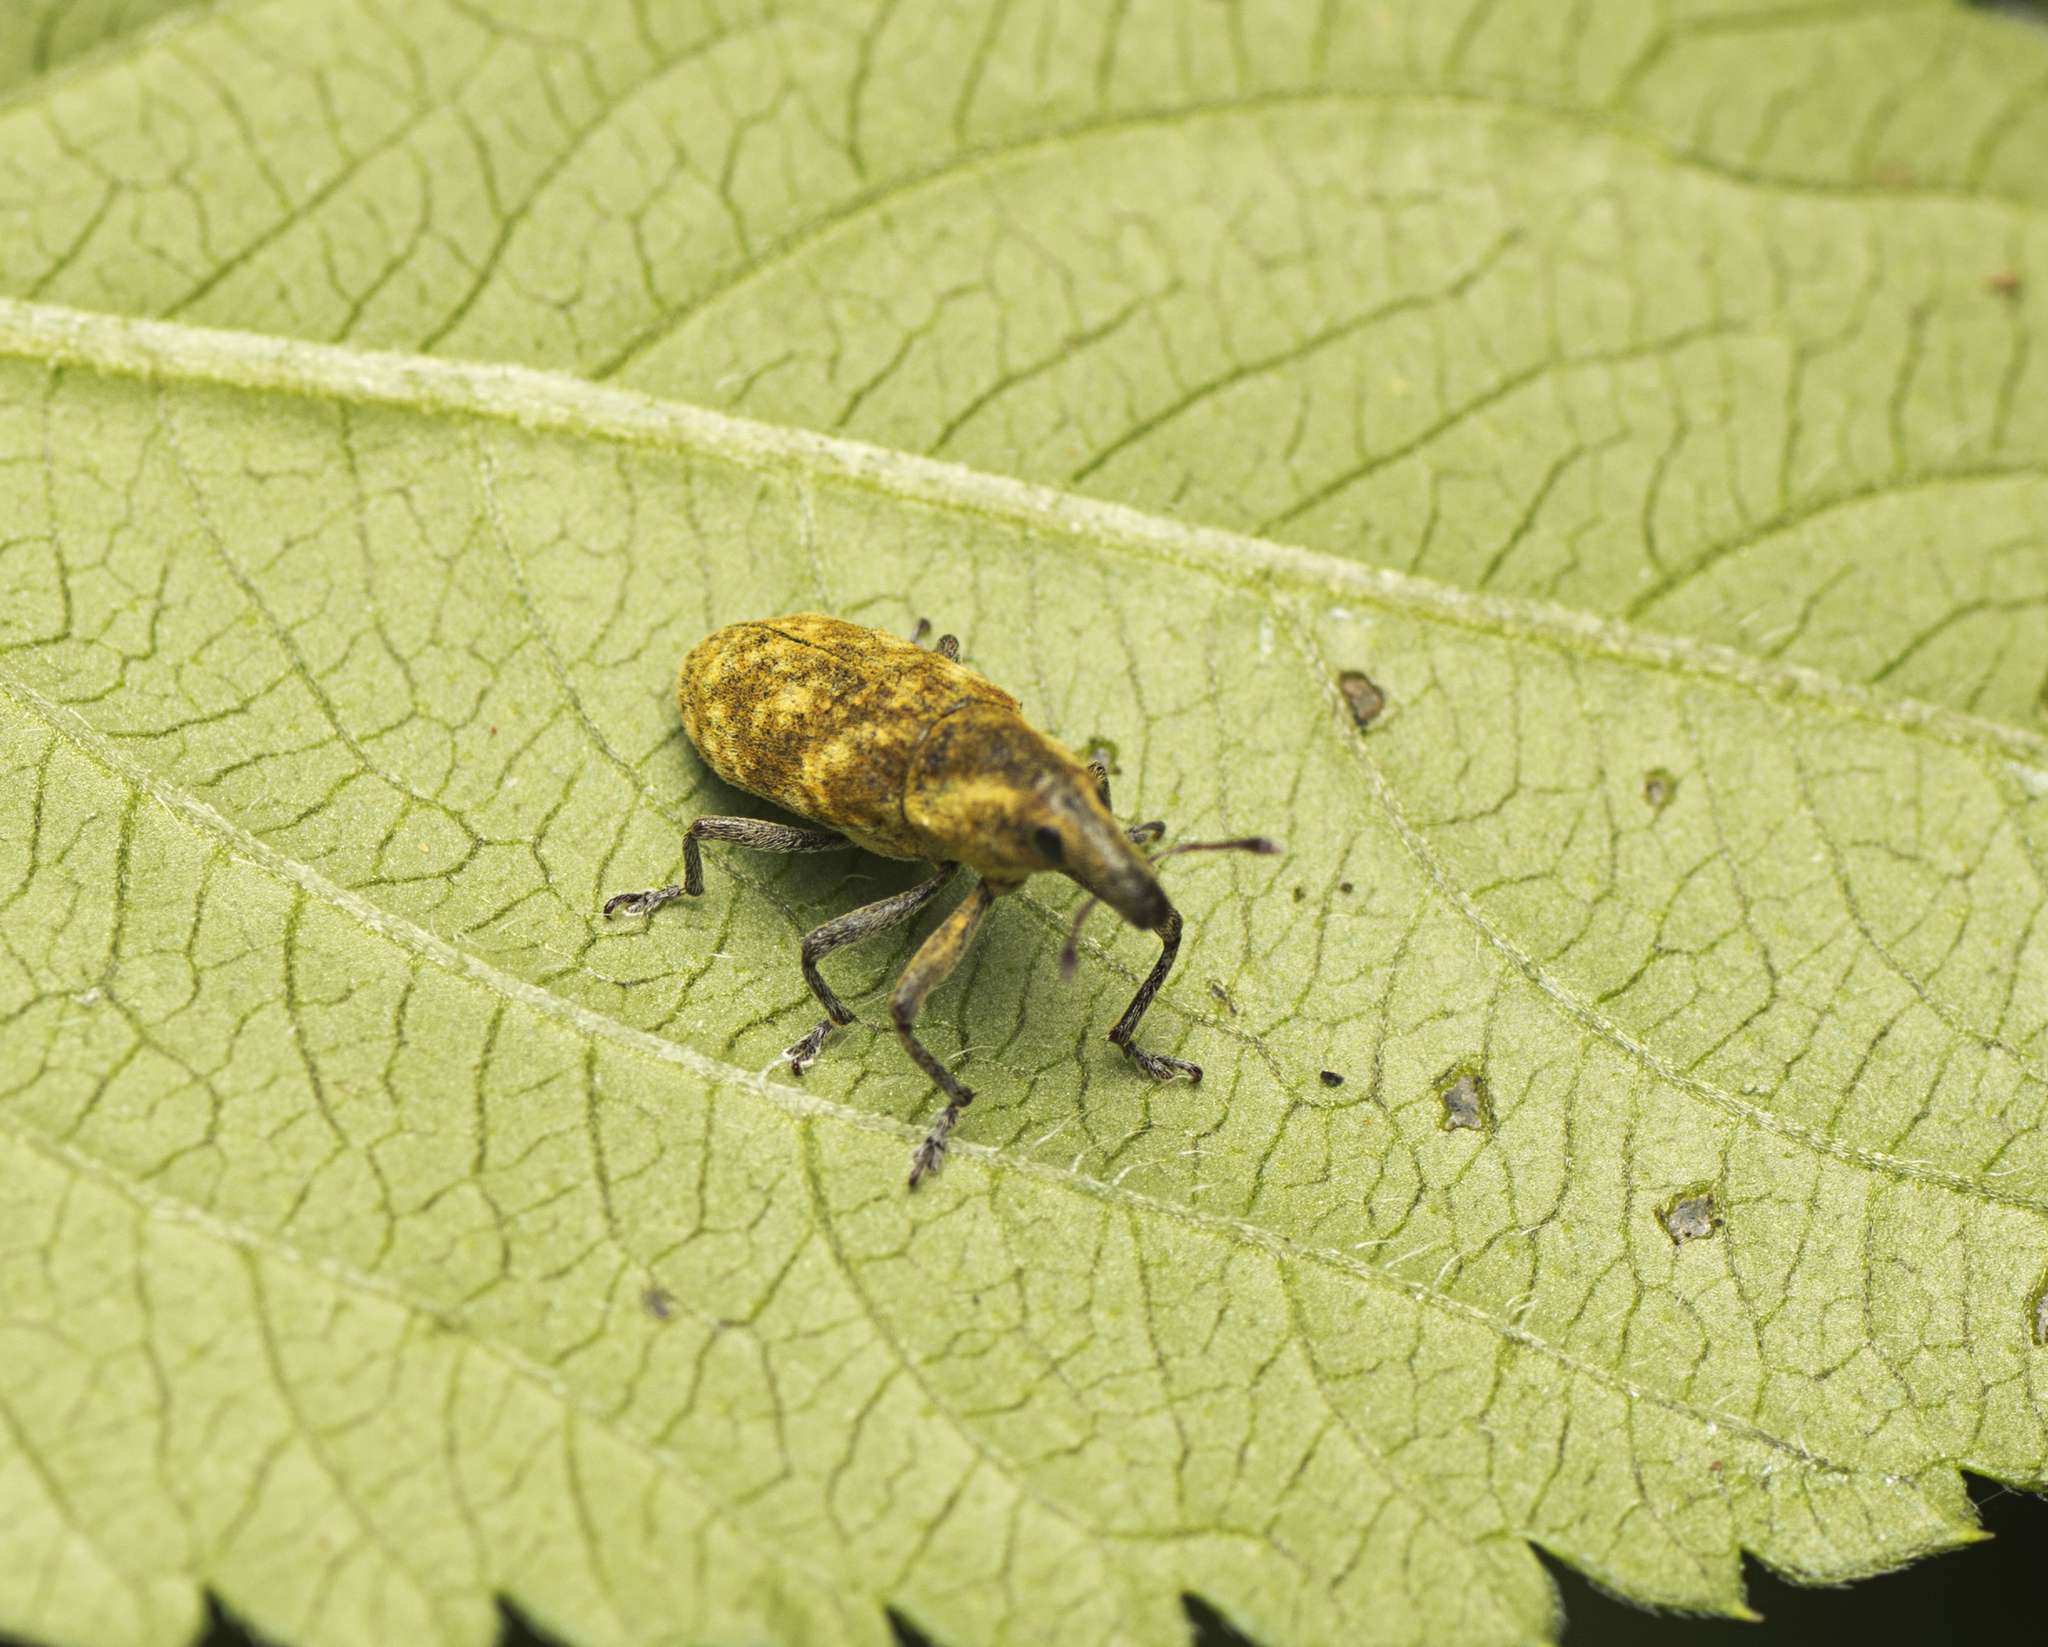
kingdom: Animalia
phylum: Arthropoda
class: Insecta
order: Coleoptera
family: Curculionidae
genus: Gasteroclisus
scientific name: Gasteroclisus
